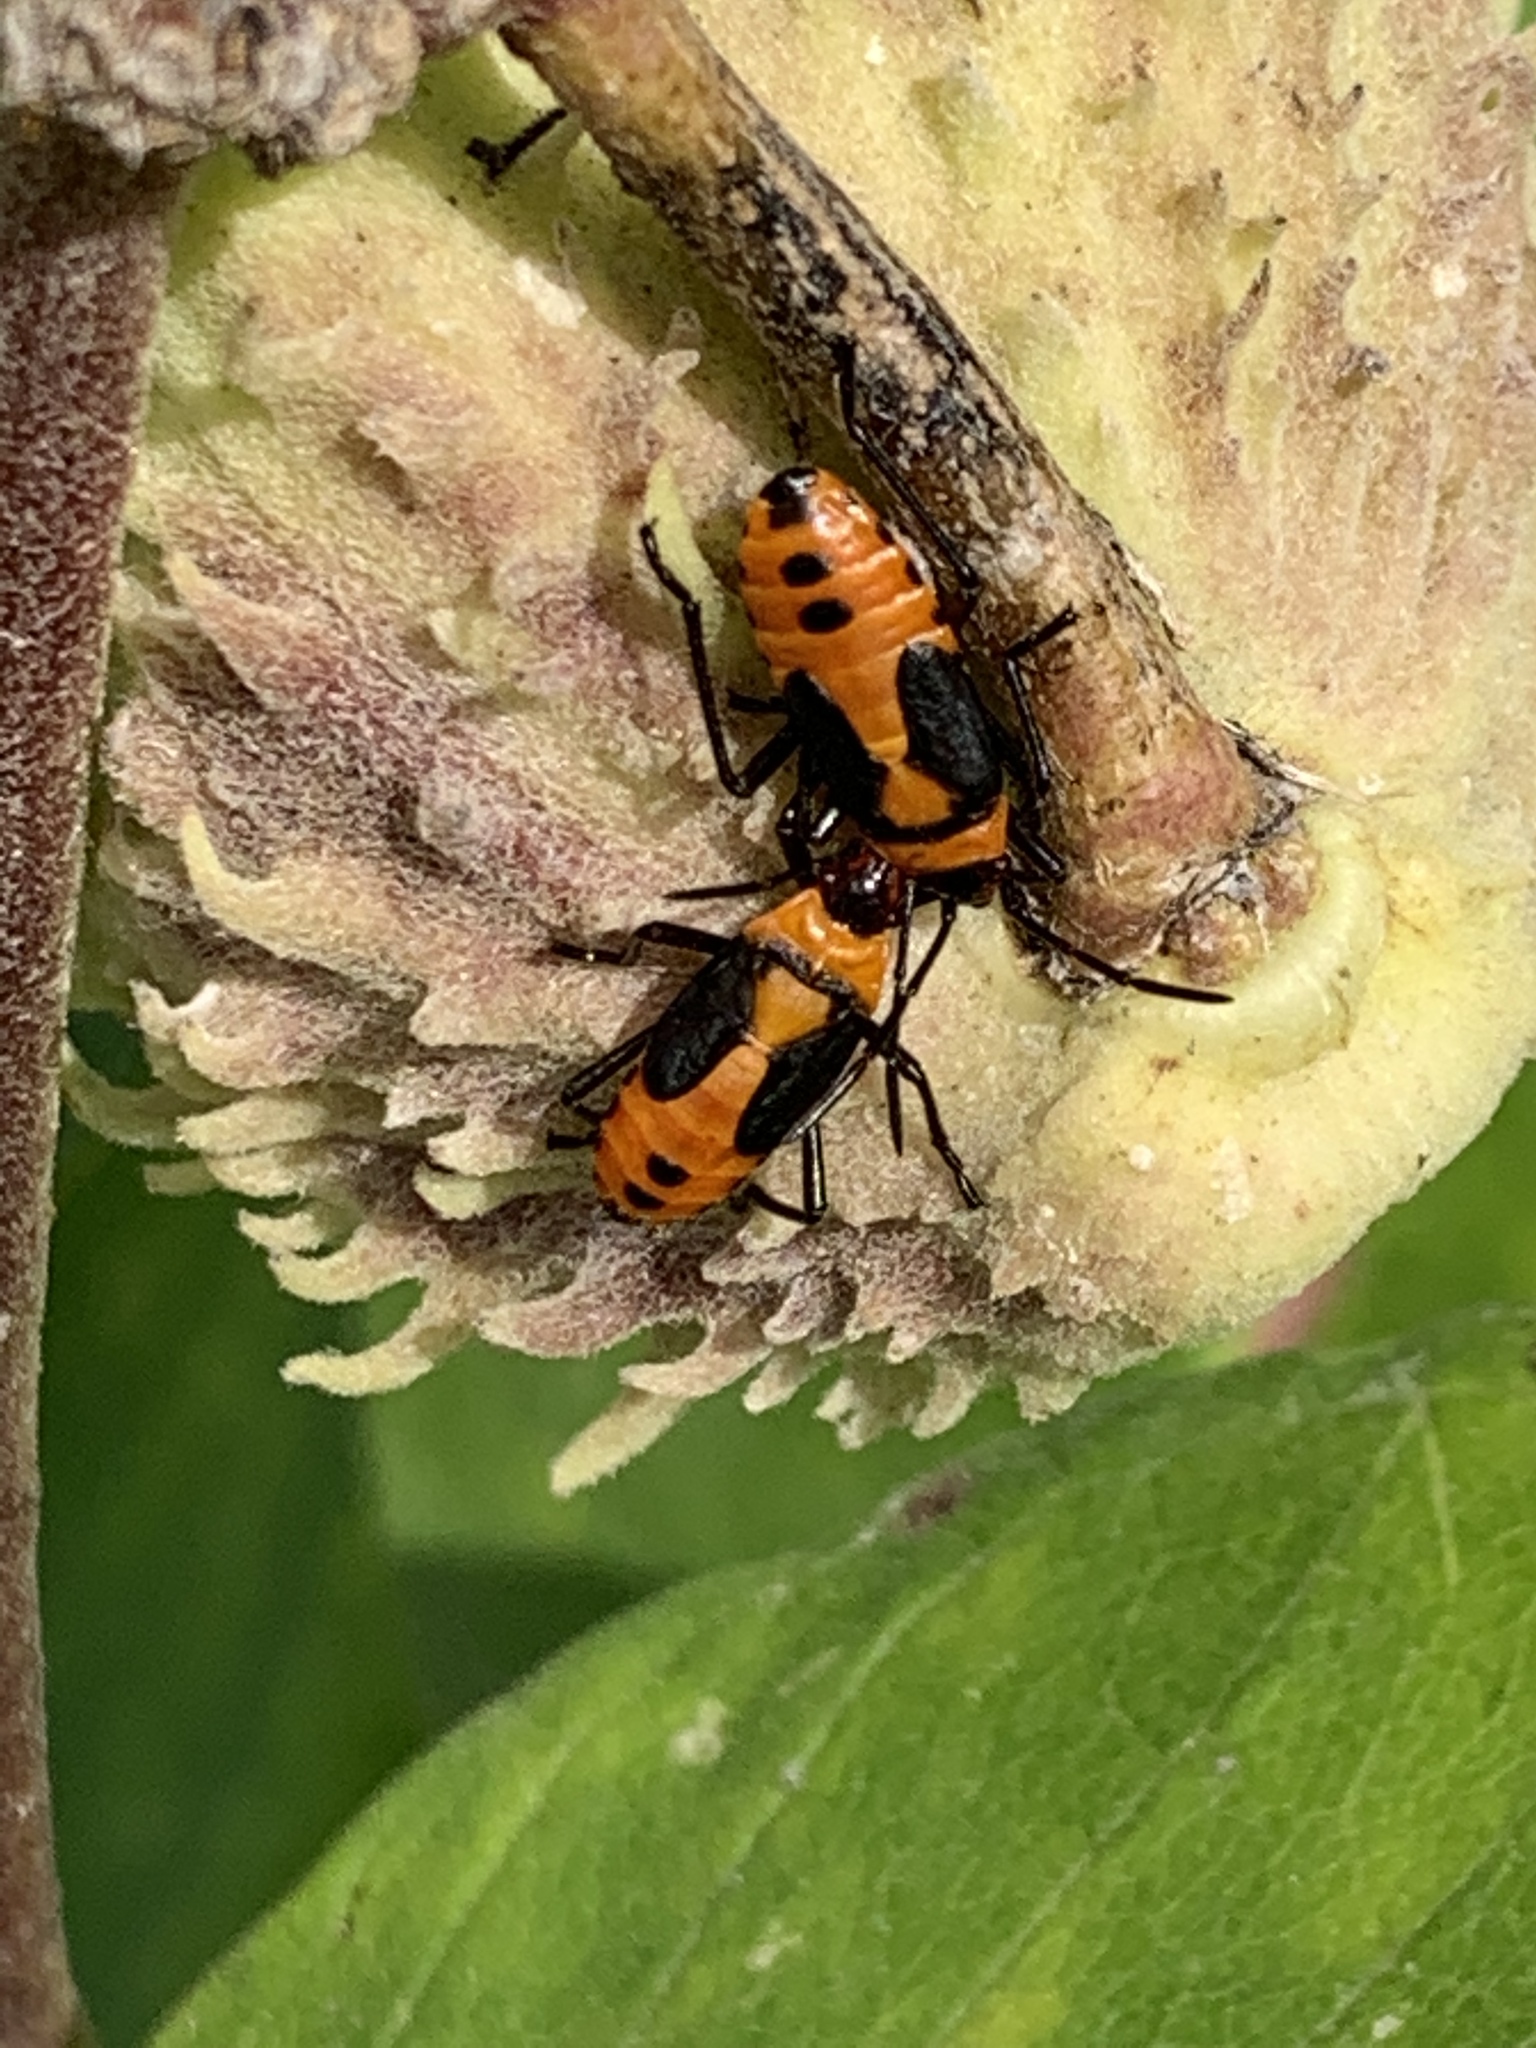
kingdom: Animalia
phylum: Arthropoda
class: Insecta
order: Hemiptera
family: Lygaeidae
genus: Oncopeltus
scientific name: Oncopeltus fasciatus
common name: Large milkweed bug
